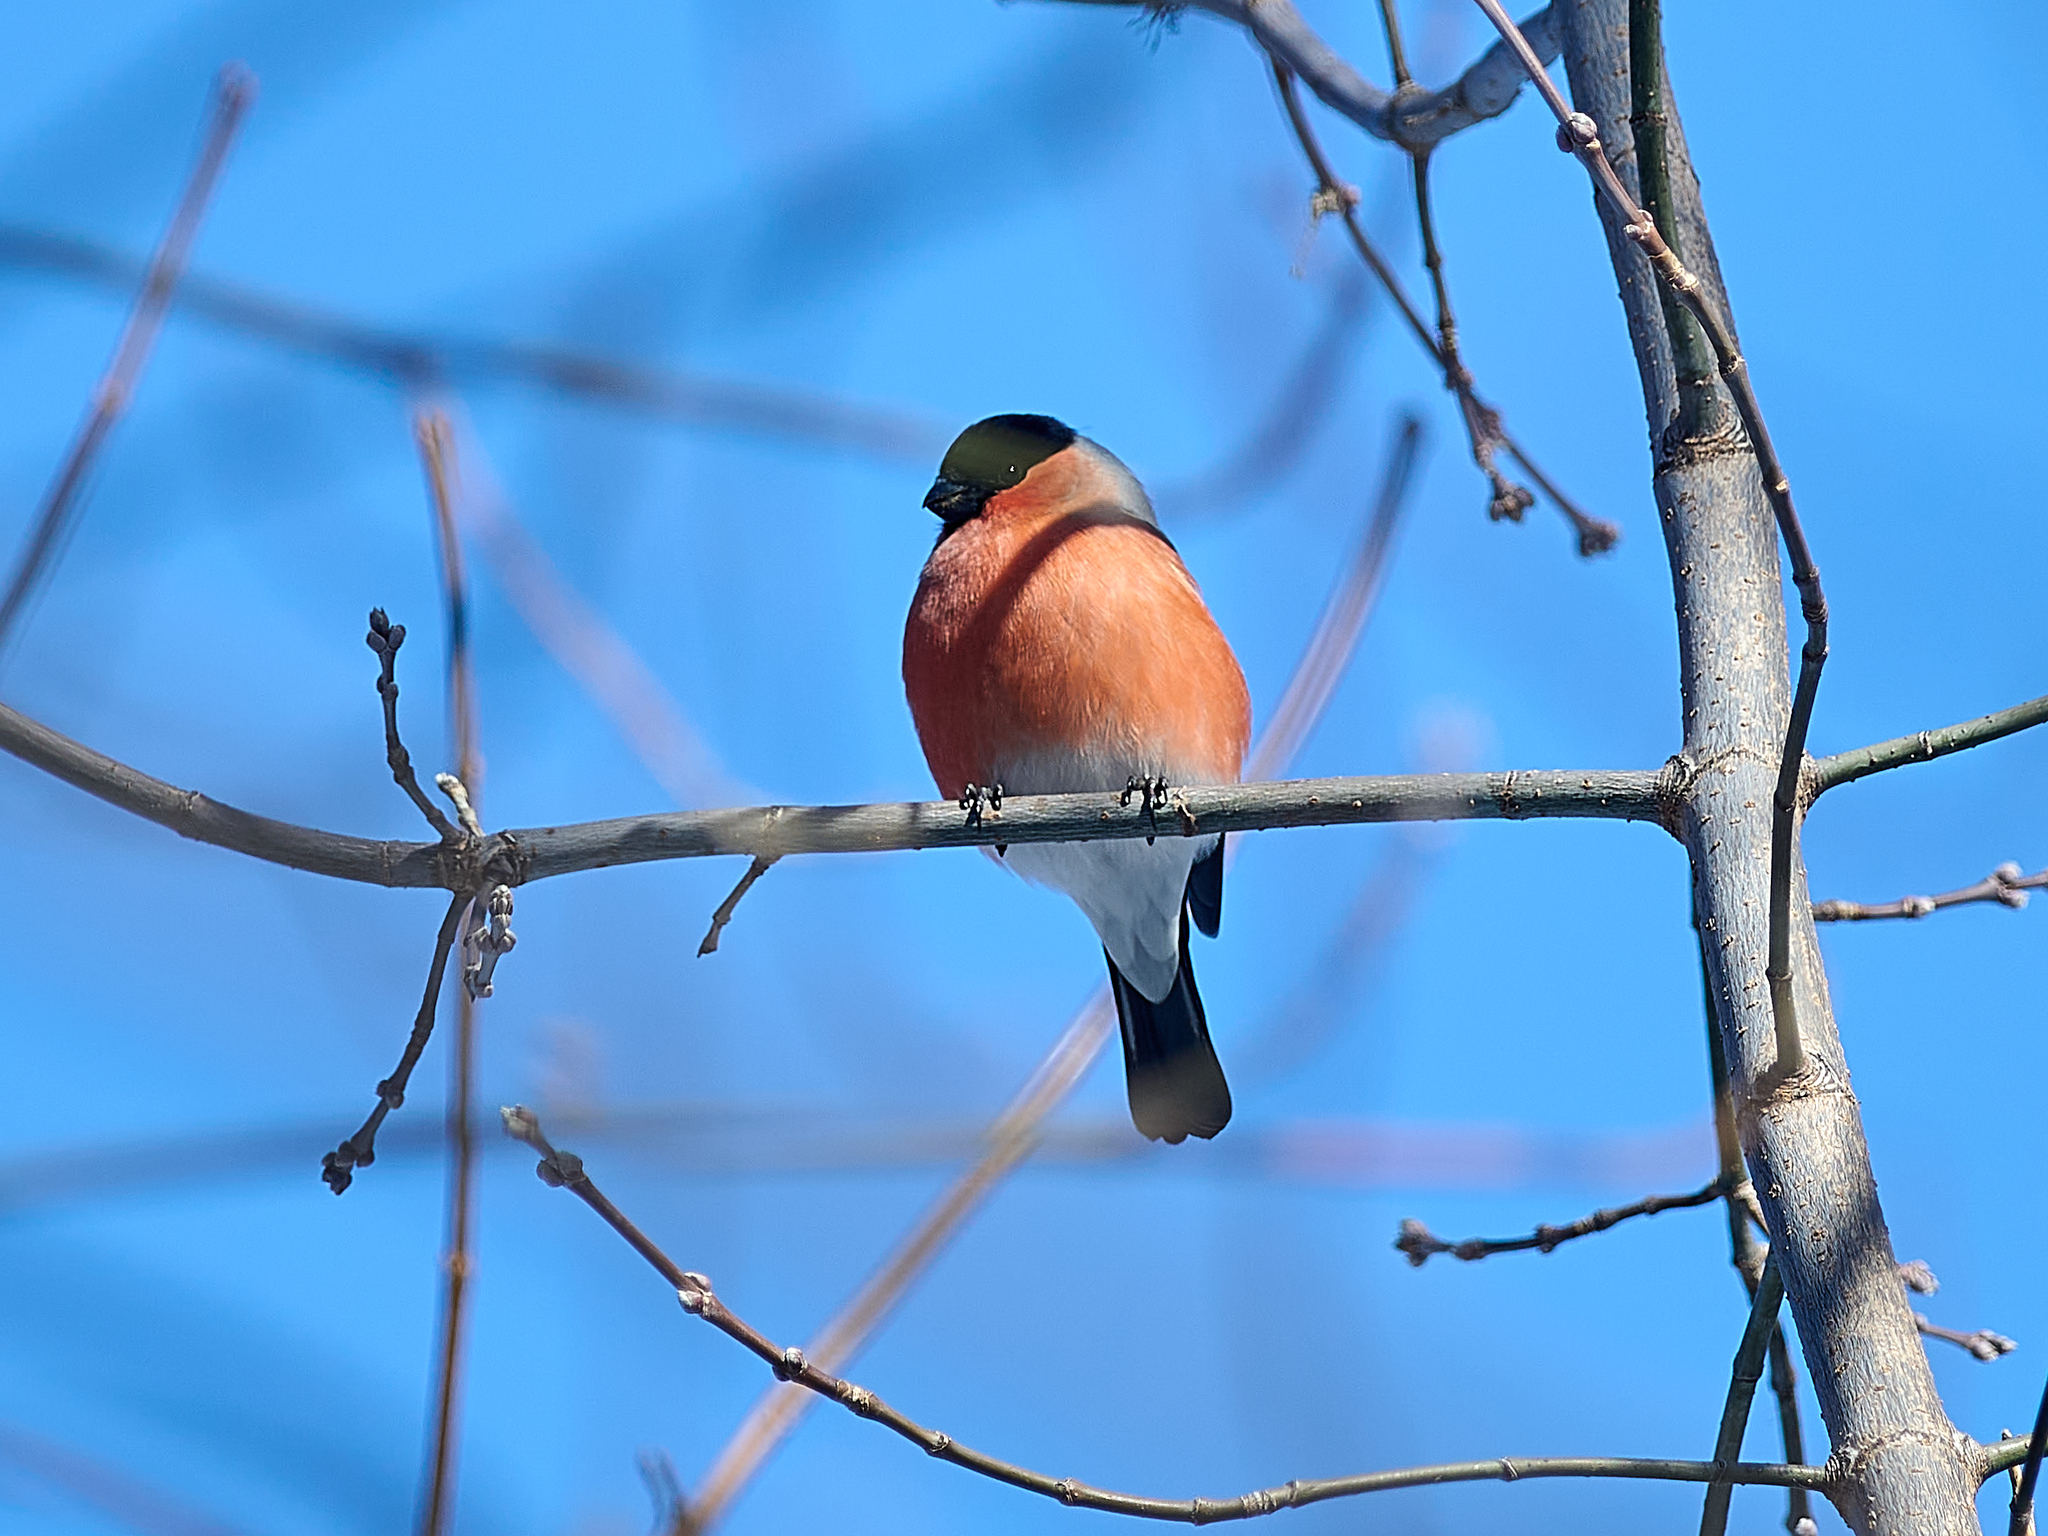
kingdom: Animalia
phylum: Chordata
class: Aves
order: Passeriformes
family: Fringillidae
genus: Pyrrhula
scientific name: Pyrrhula pyrrhula
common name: Eurasian bullfinch
